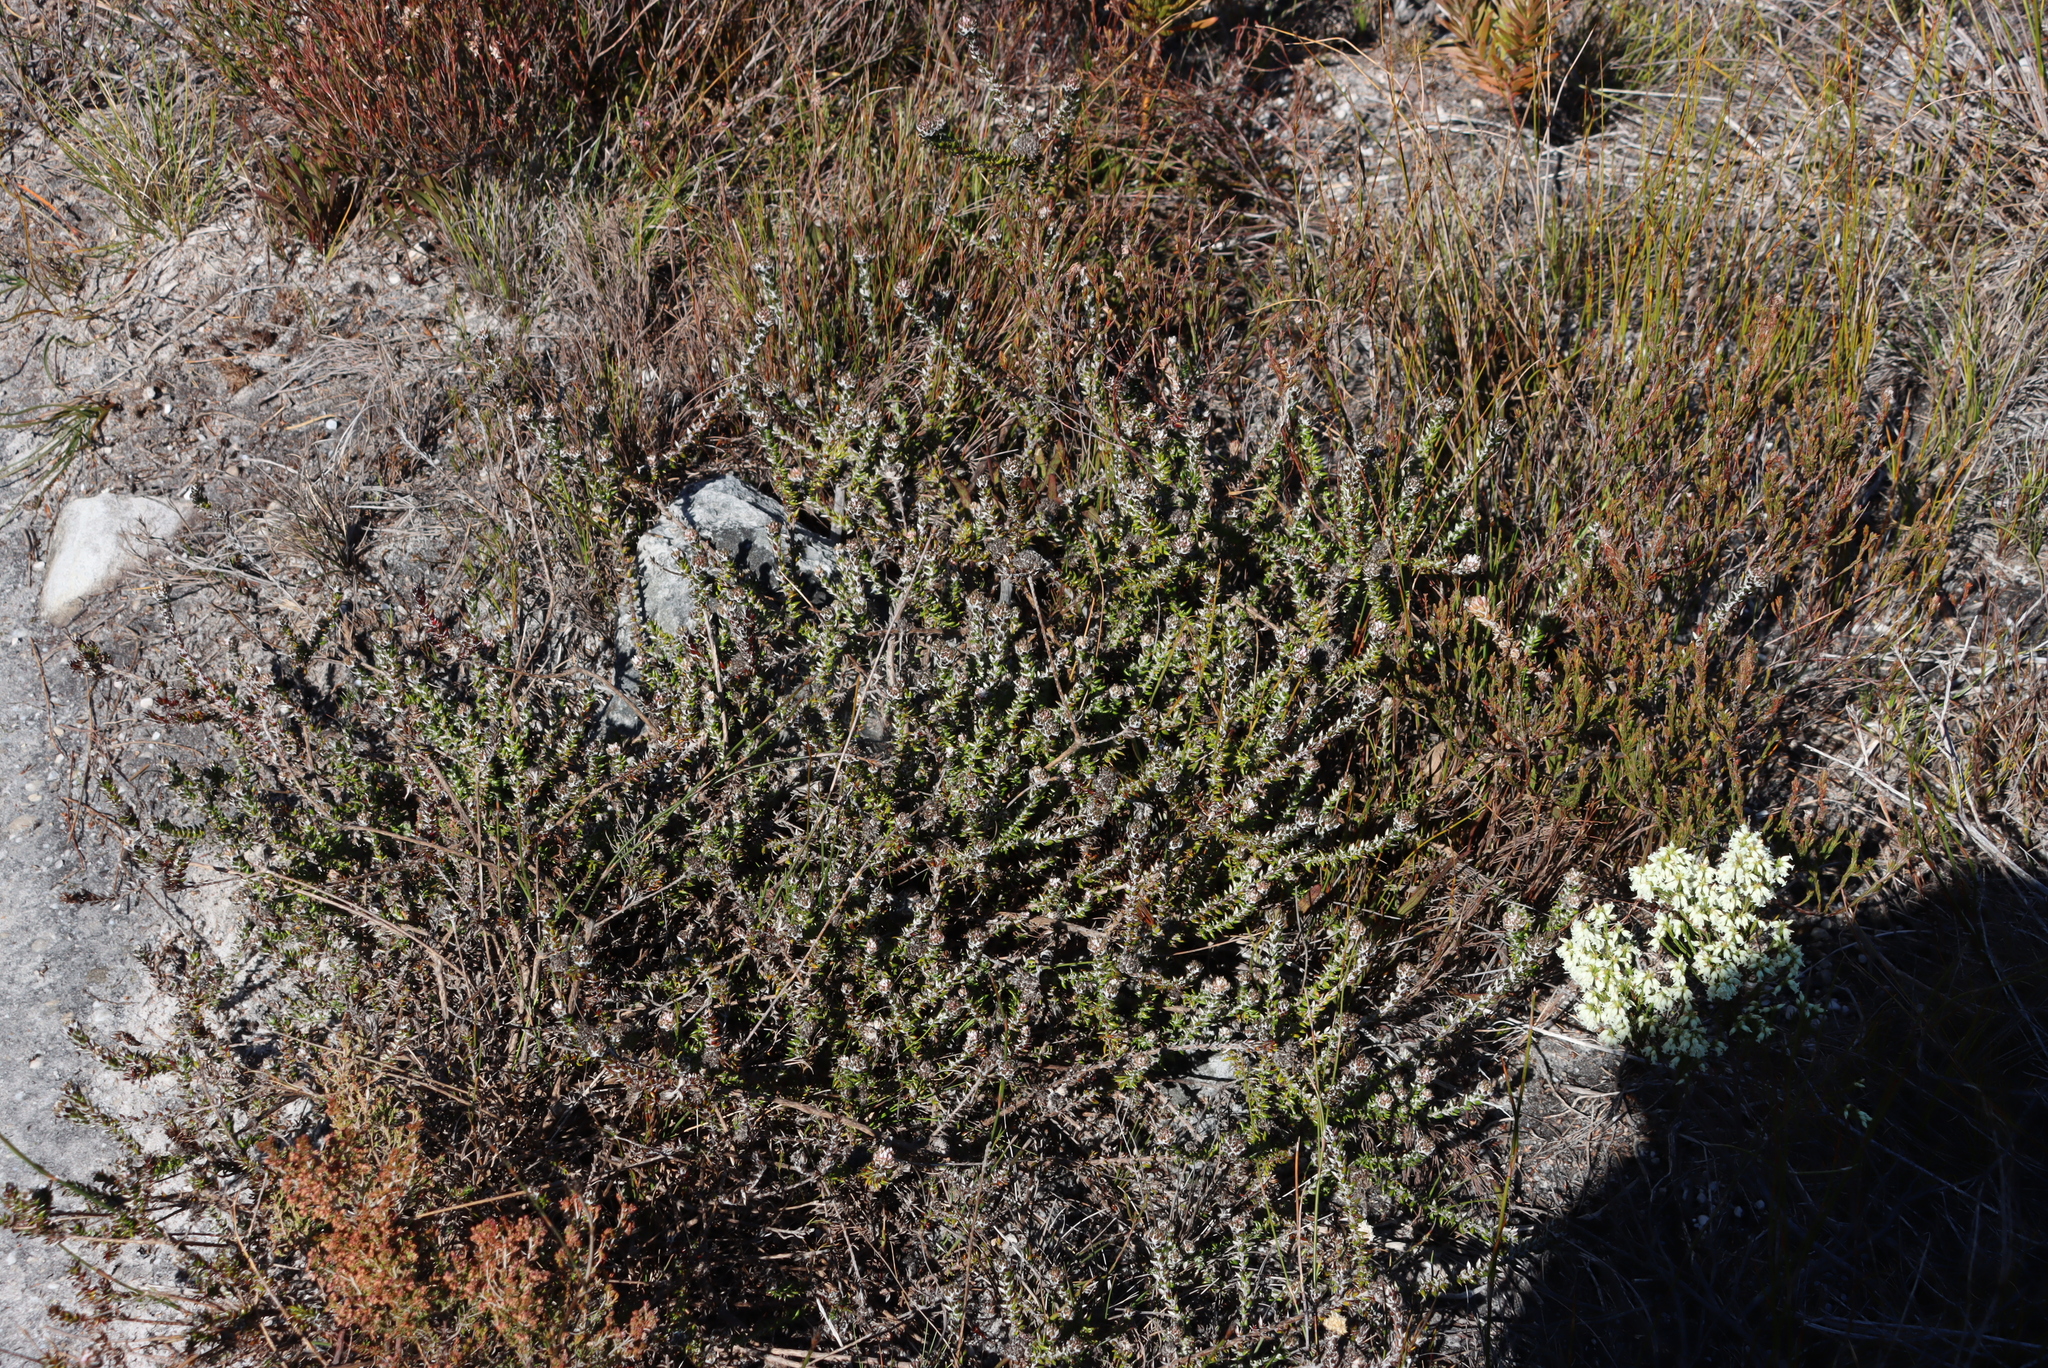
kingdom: Plantae
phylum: Tracheophyta
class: Magnoliopsida
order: Asterales
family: Asteraceae
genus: Metalasia
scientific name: Metalasia divergens
